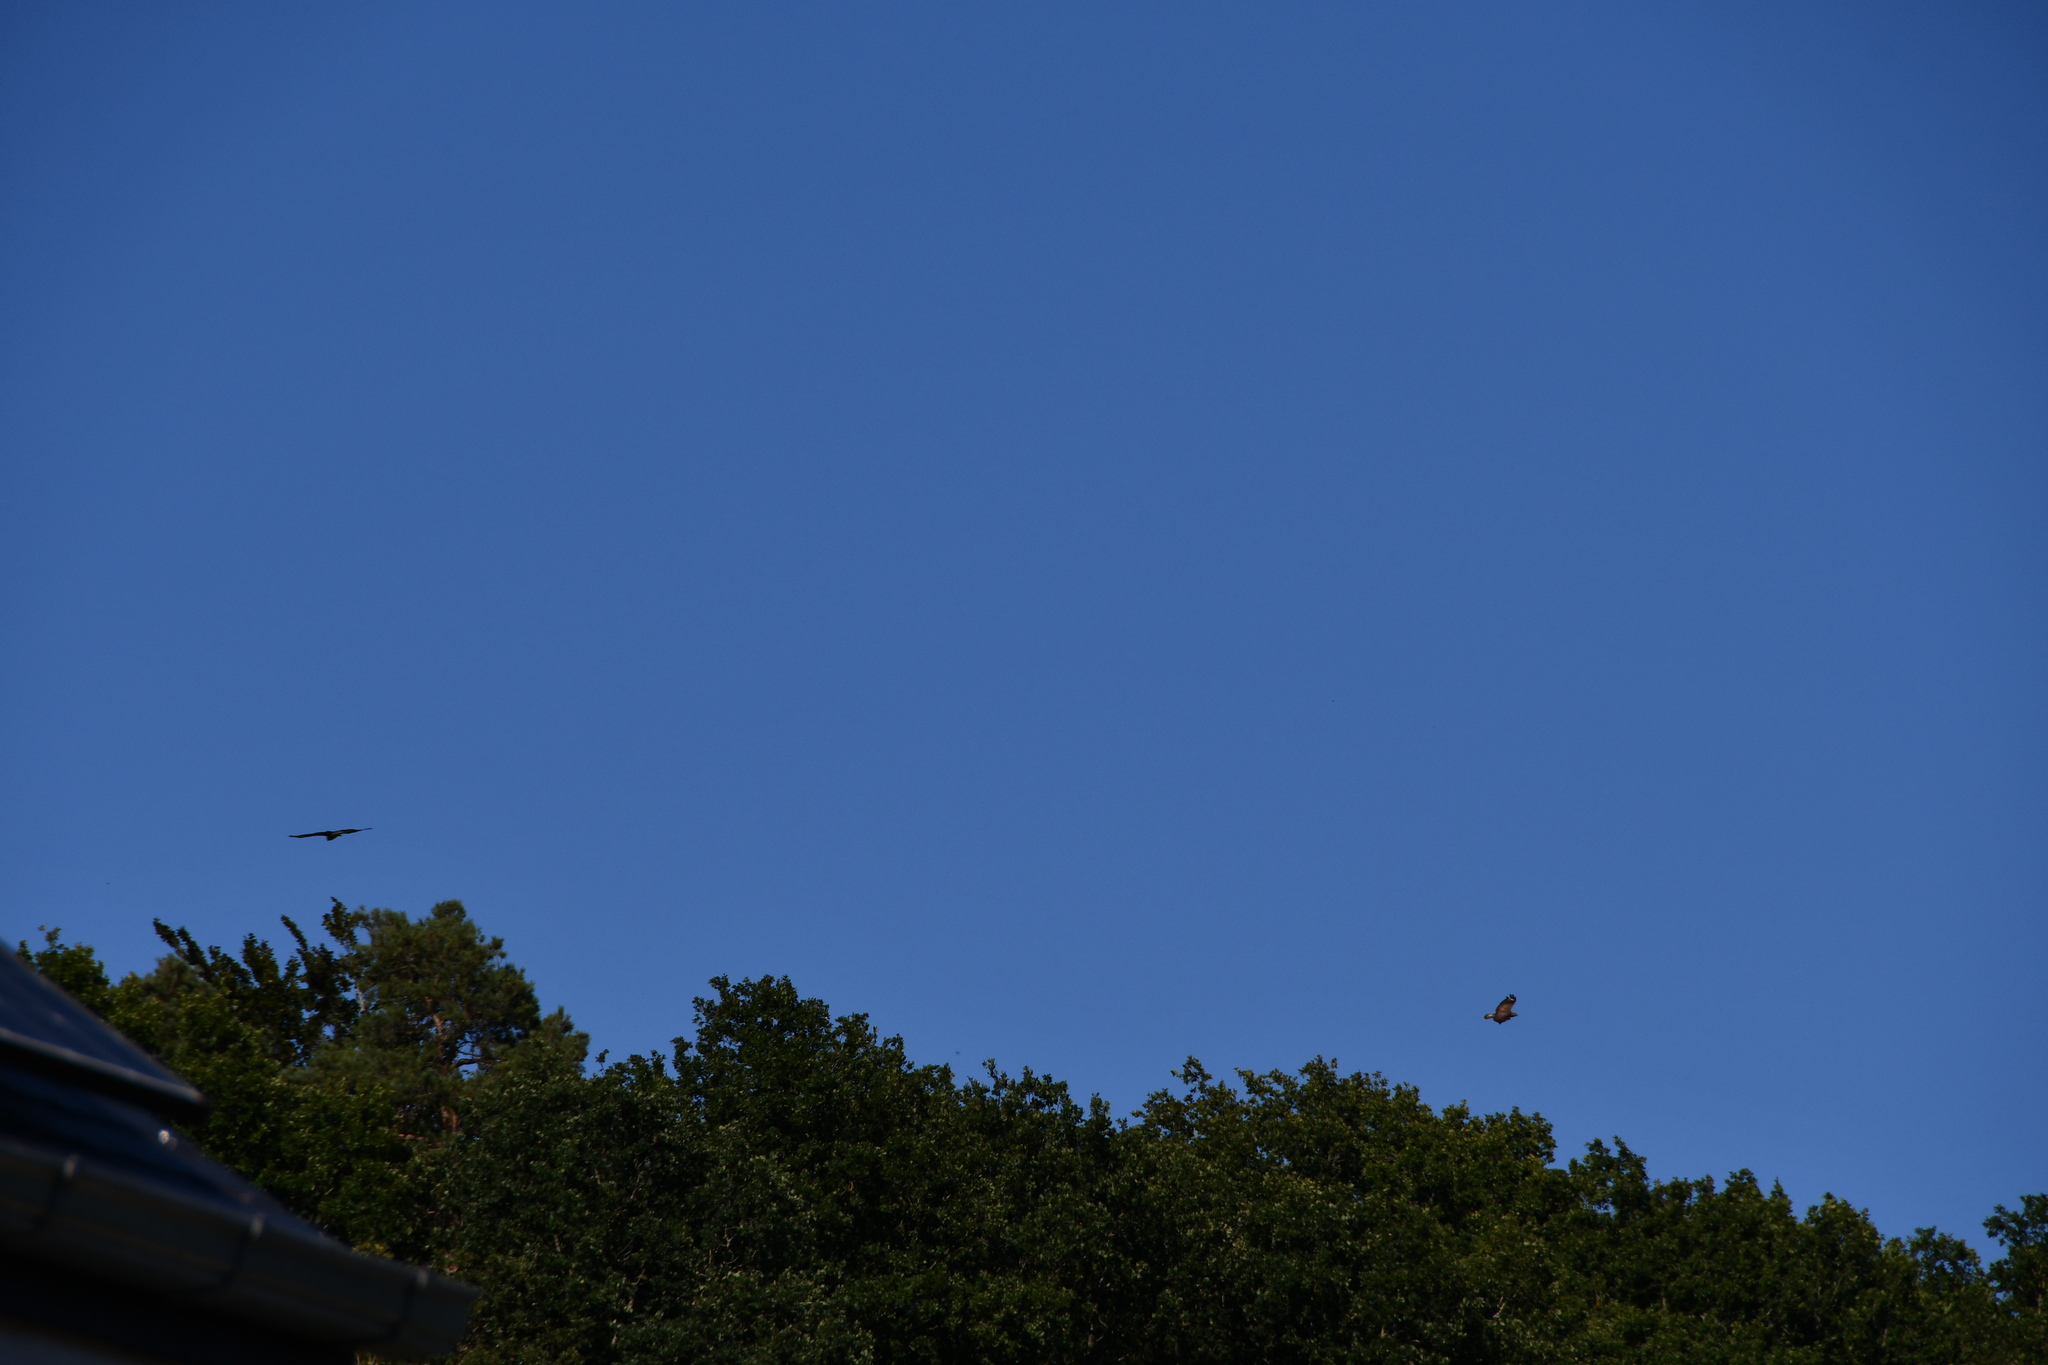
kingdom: Animalia
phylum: Chordata
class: Aves
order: Accipitriformes
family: Accipitridae
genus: Buteo
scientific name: Buteo buteo
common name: Common buzzard
